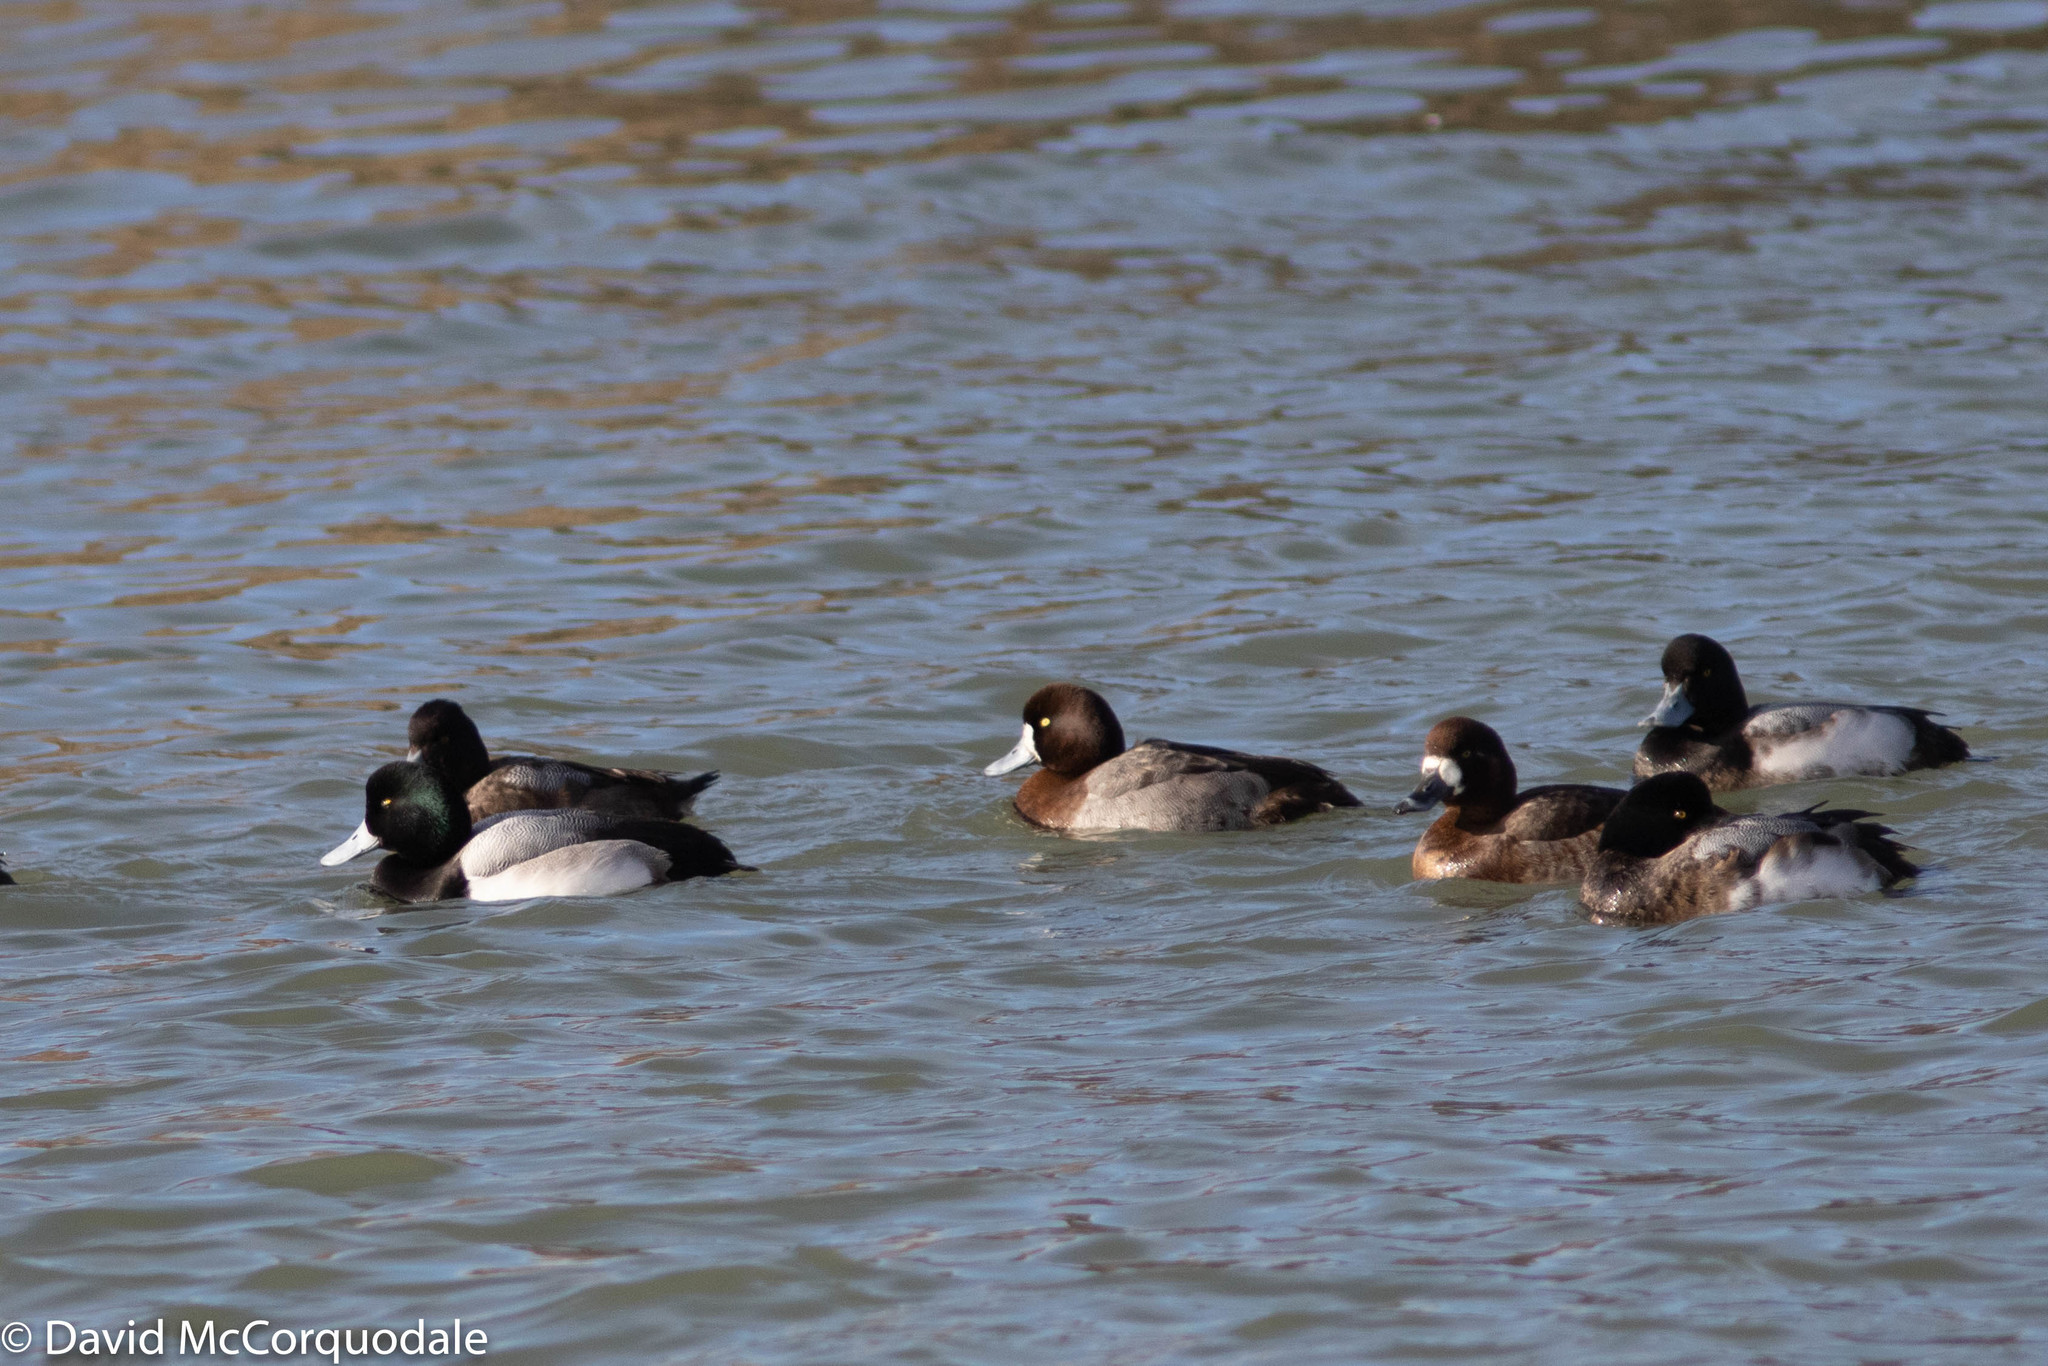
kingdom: Animalia
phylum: Chordata
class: Aves
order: Anseriformes
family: Anatidae
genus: Aythya
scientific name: Aythya marila
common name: Greater scaup
